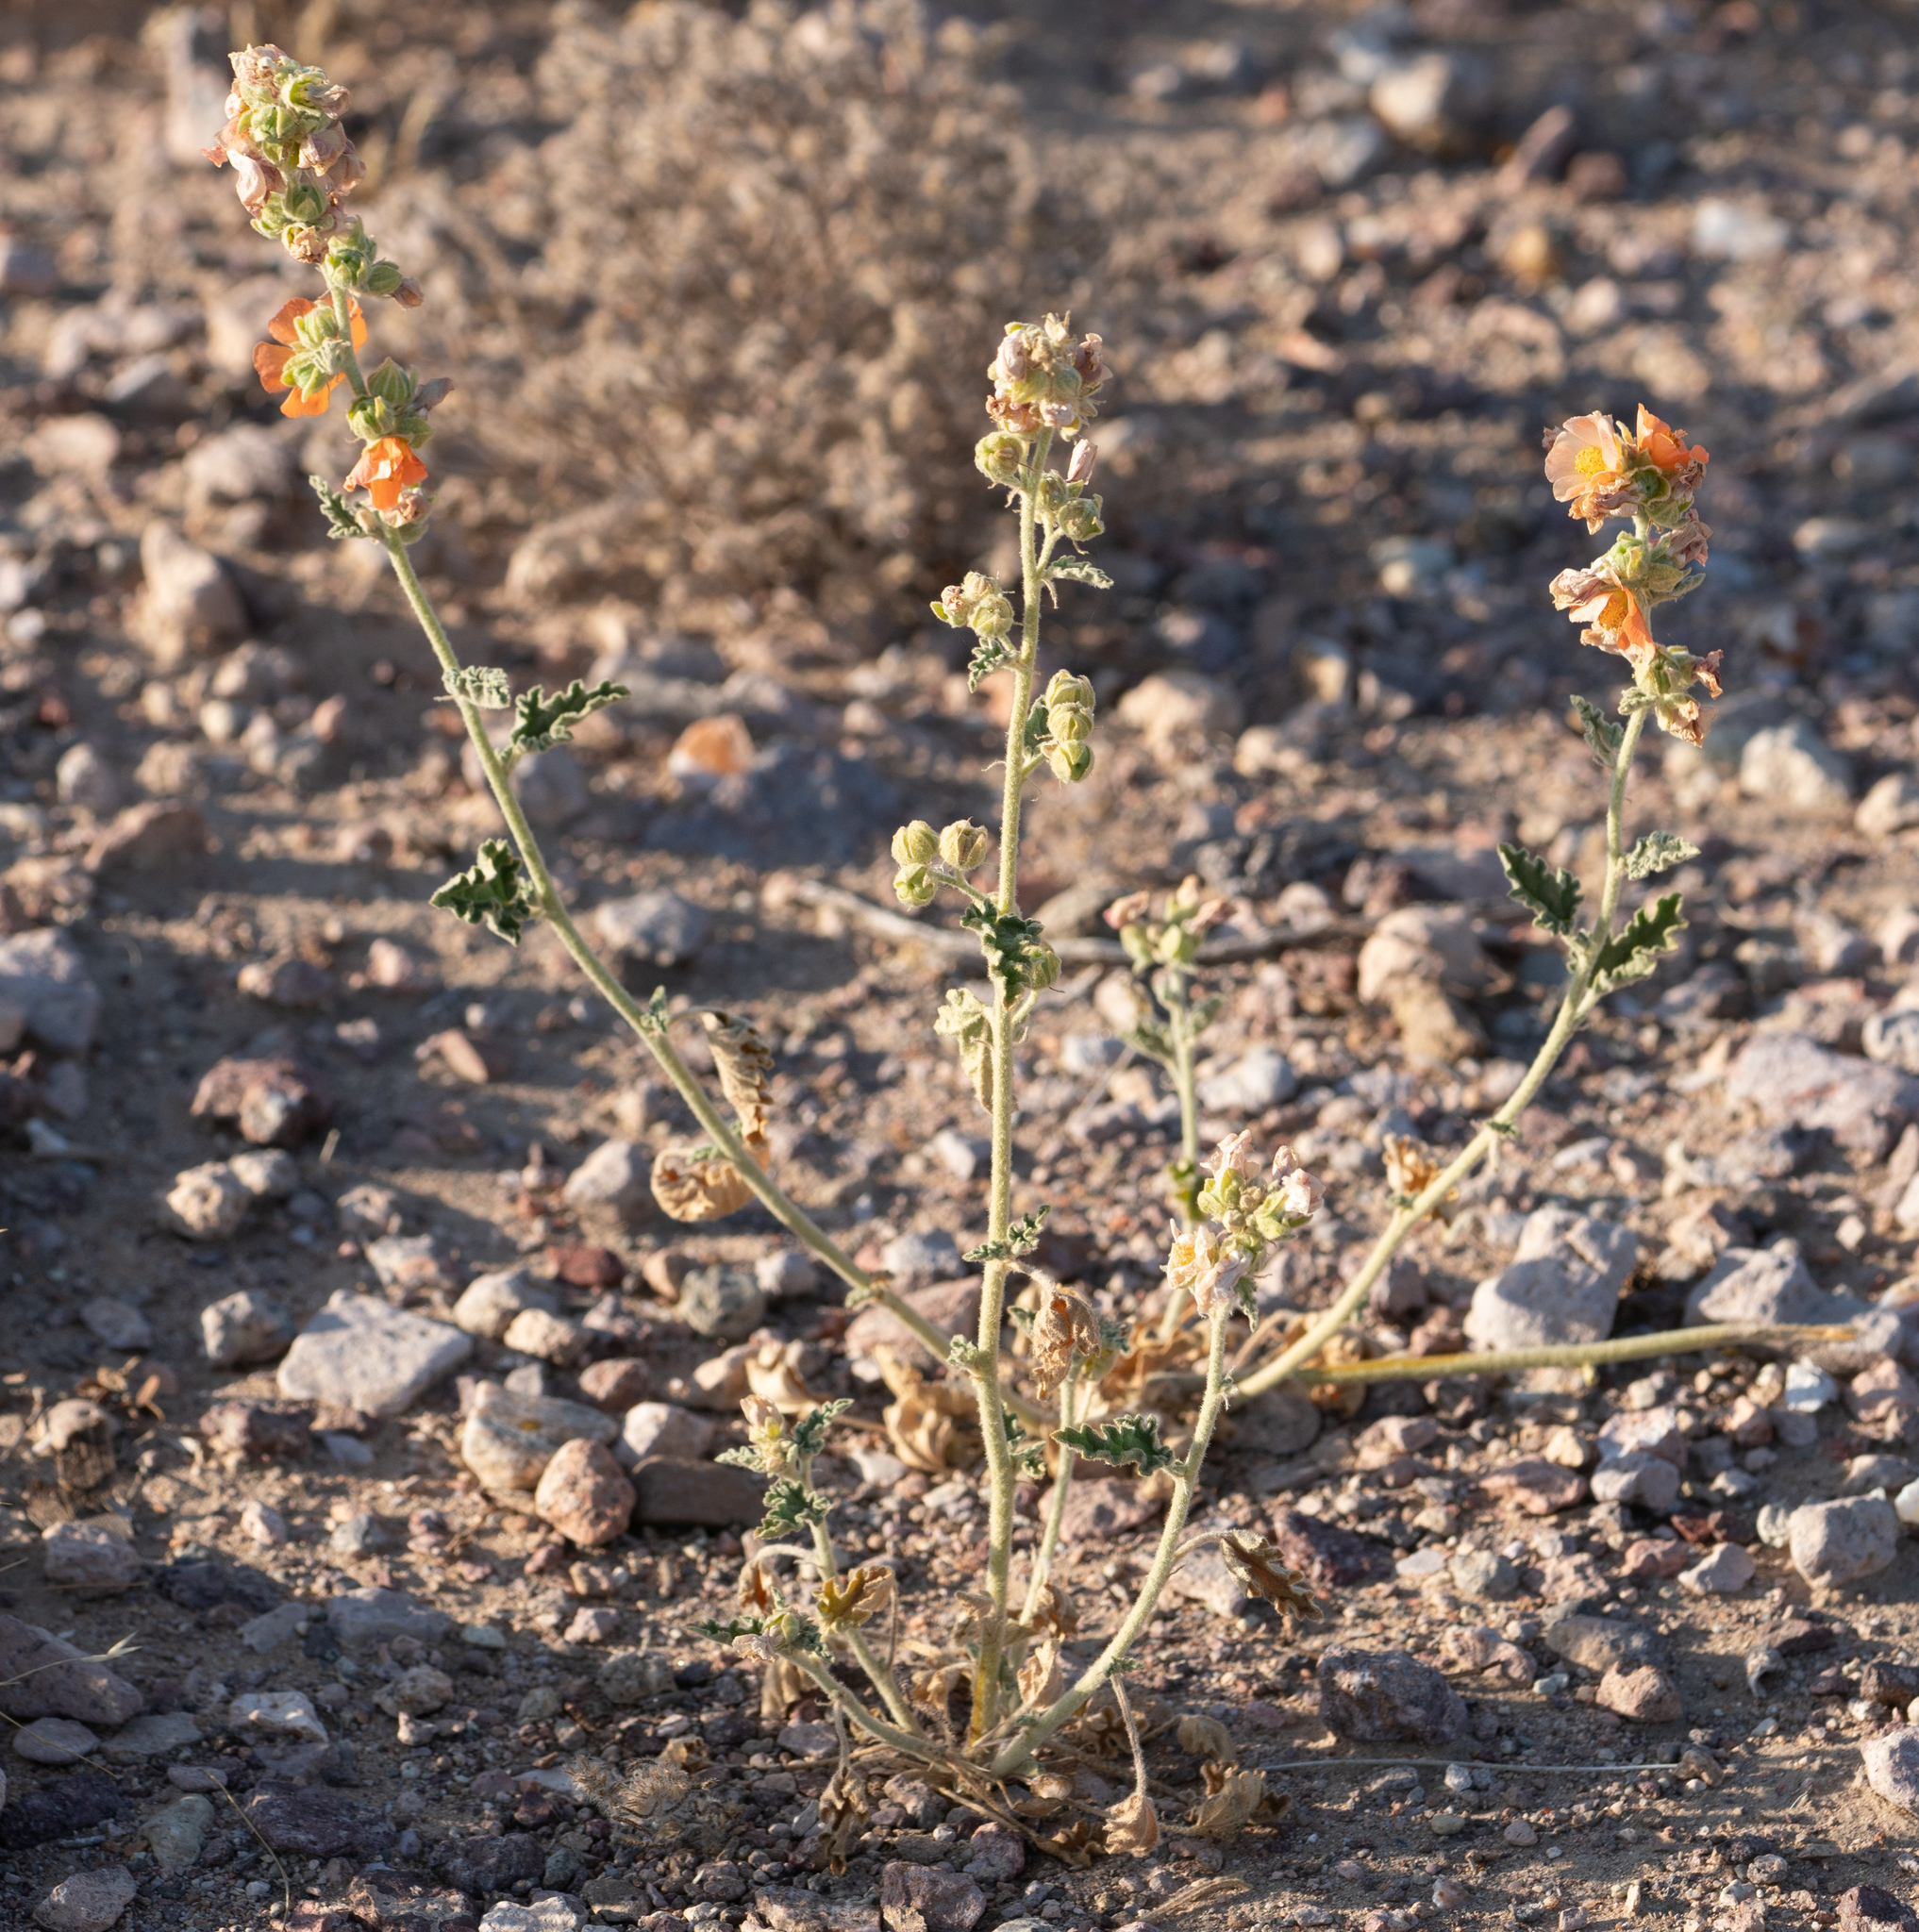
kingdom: Plantae
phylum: Tracheophyta
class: Magnoliopsida
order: Malvales
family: Malvaceae
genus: Sphaeralcea
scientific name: Sphaeralcea ambigua
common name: Apricot globe-mallow
